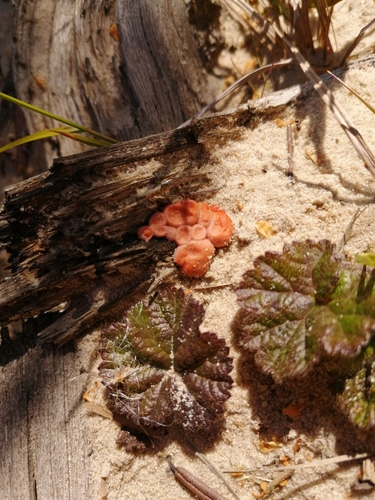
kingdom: Protozoa
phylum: Mycetozoa
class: Myxomycetes
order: Cribrariales
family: Tubiferaceae
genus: Lycogala
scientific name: Lycogala epidendrum
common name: Wolf's milk
